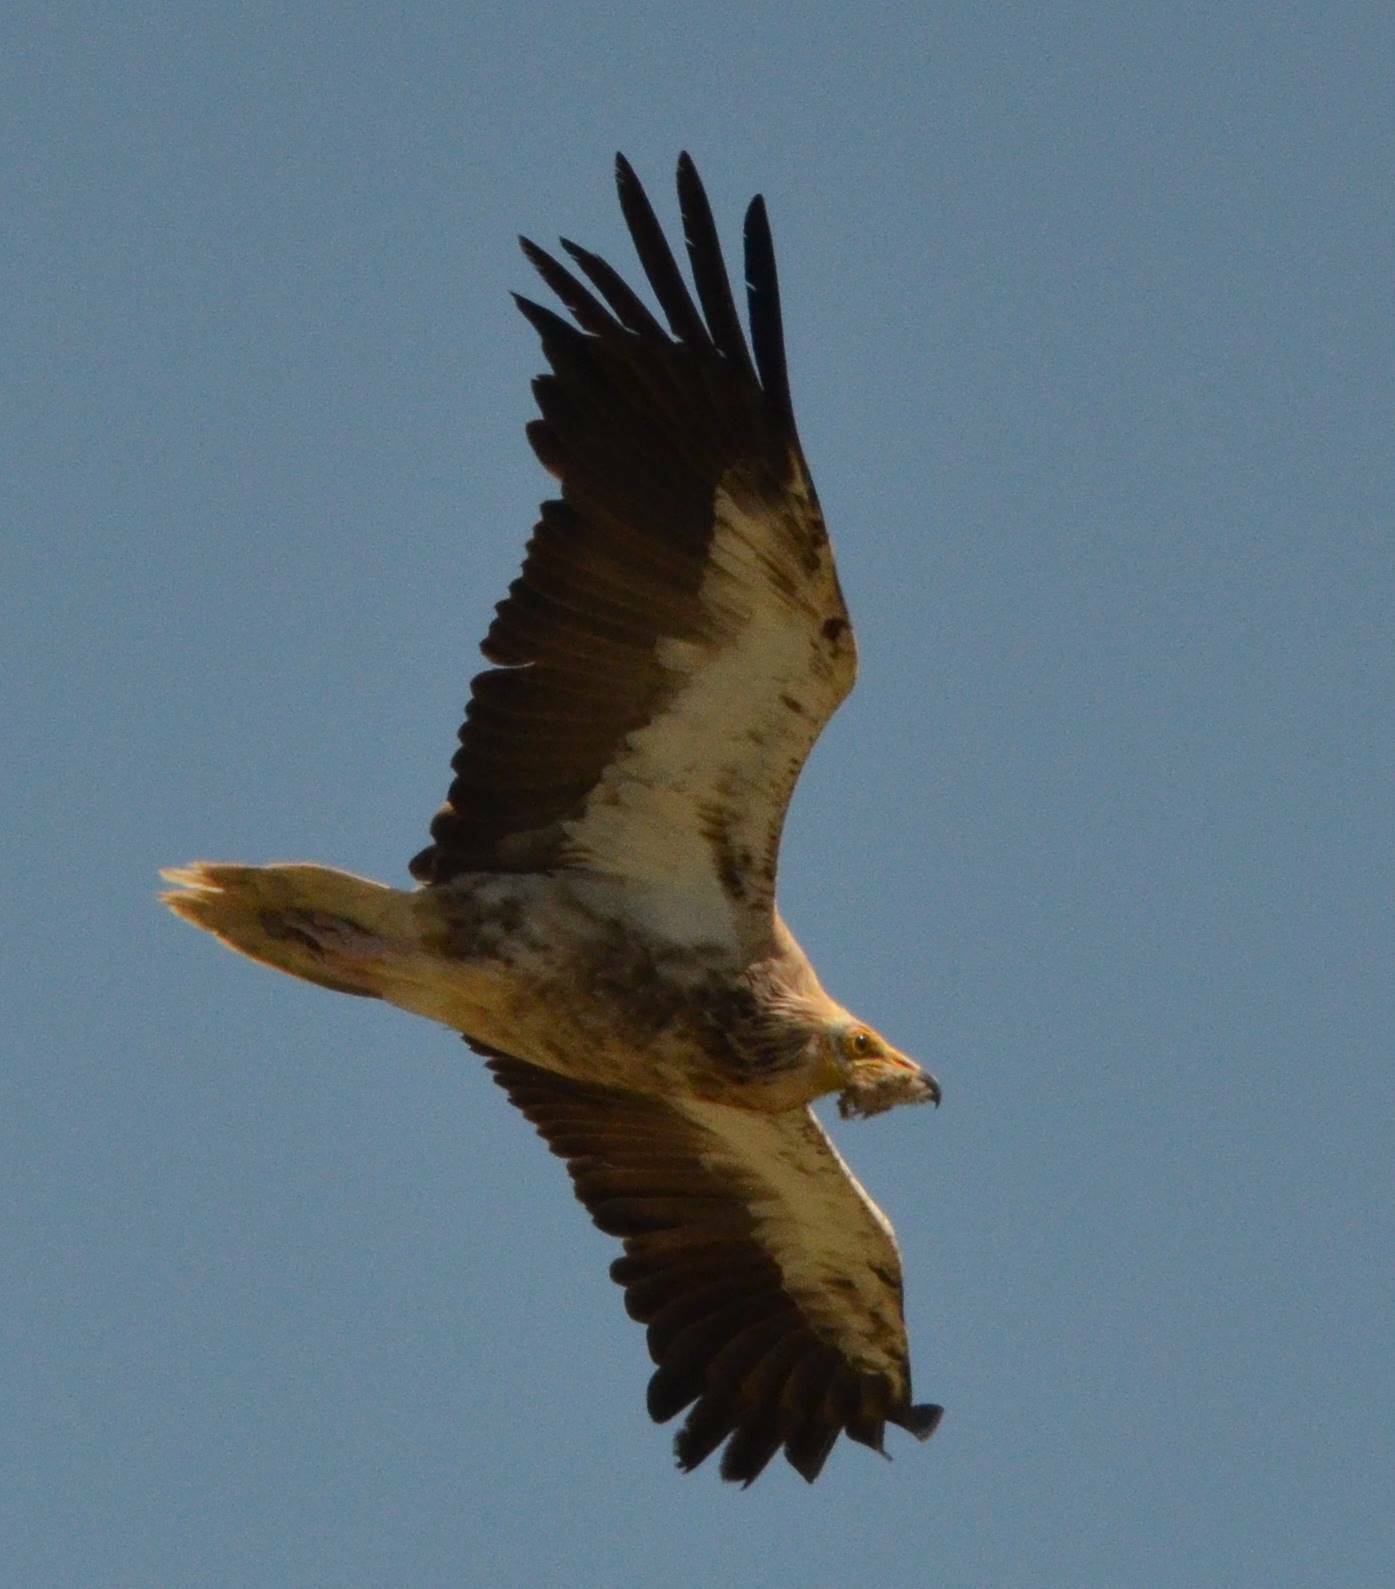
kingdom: Animalia
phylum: Chordata
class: Aves
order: Accipitriformes
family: Accipitridae
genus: Neophron
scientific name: Neophron percnopterus
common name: Egyptian vulture
